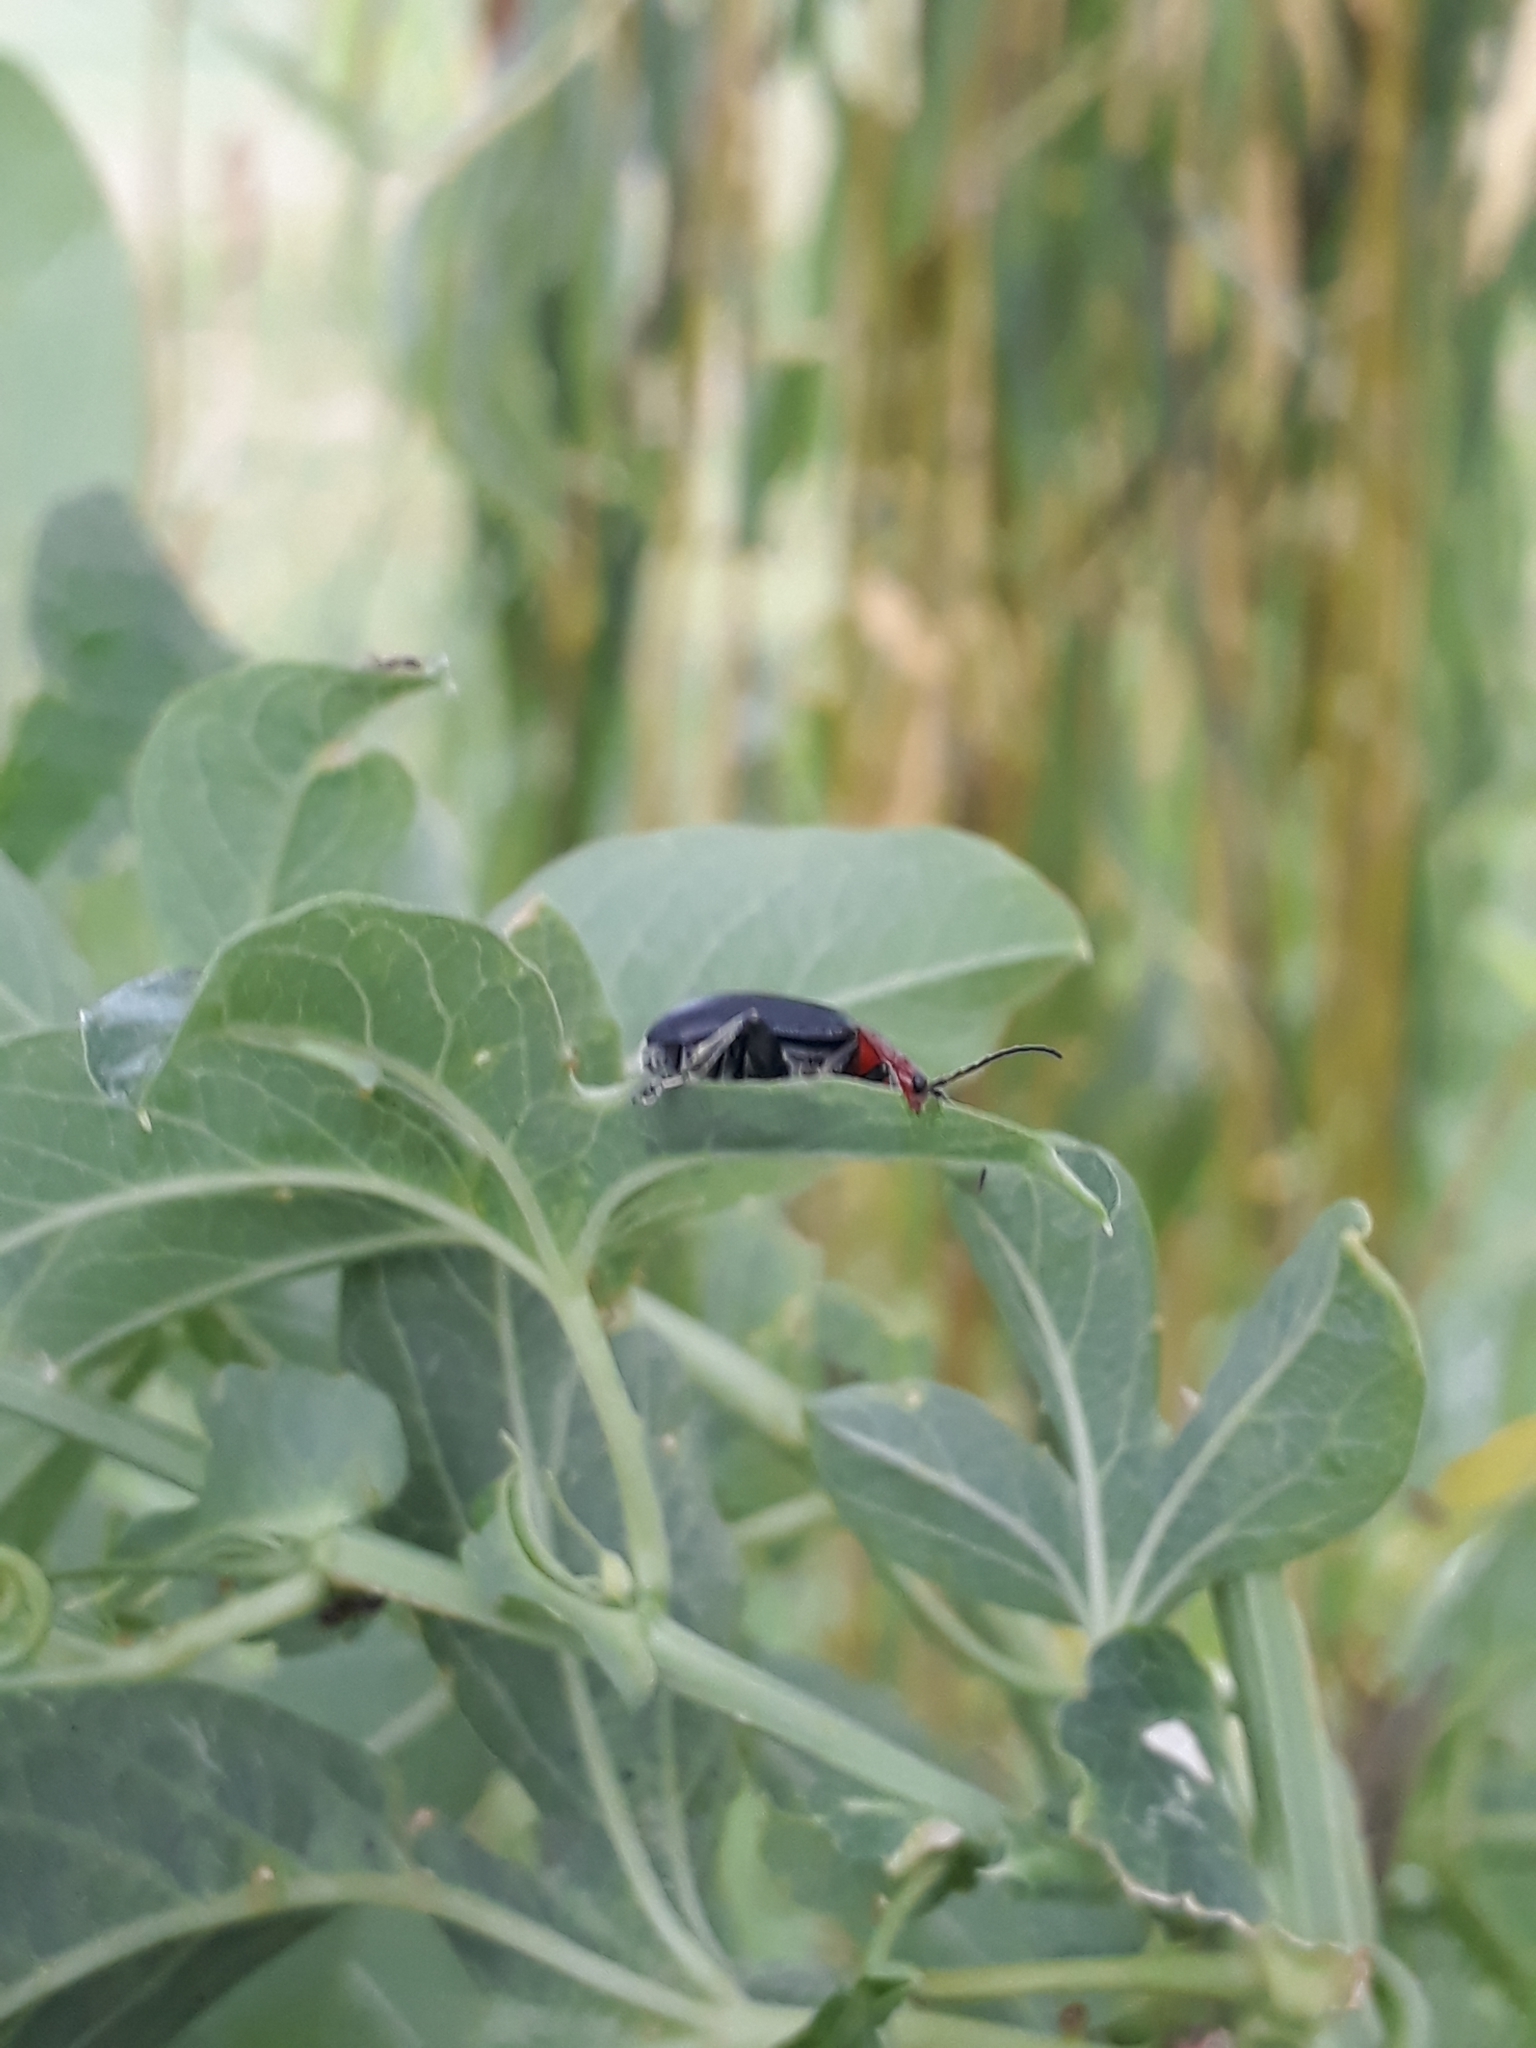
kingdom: Animalia
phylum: Arthropoda
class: Insecta
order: Coleoptera
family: Chrysomelidae
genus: Cacoscelis
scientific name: Cacoscelis
